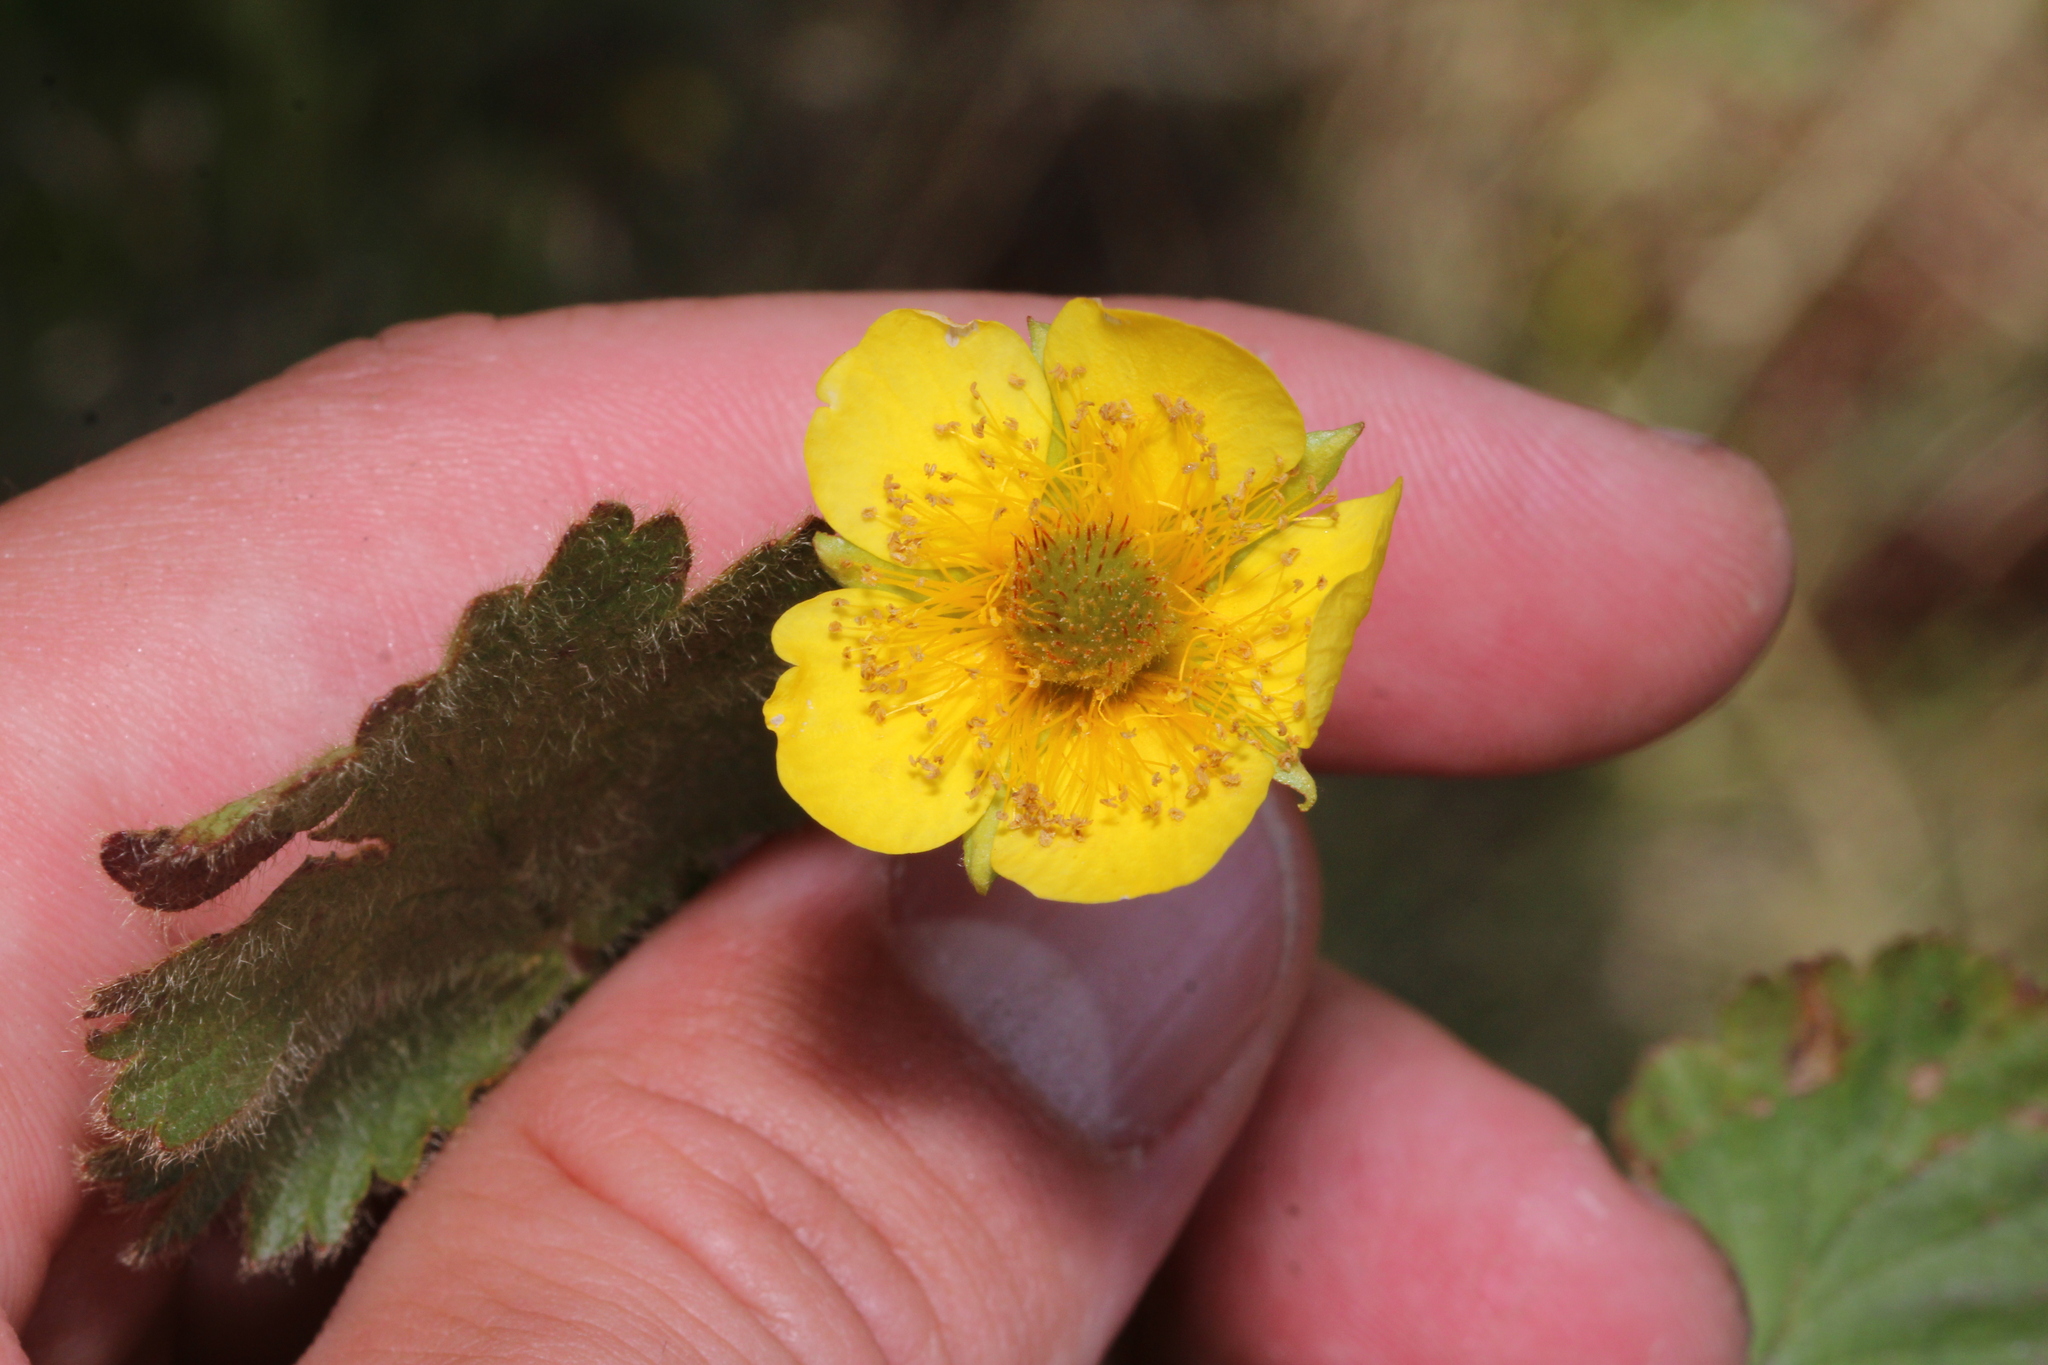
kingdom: Plantae
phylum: Tracheophyta
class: Magnoliopsida
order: Rosales
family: Rosaceae
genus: Geum
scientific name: Geum montanum
